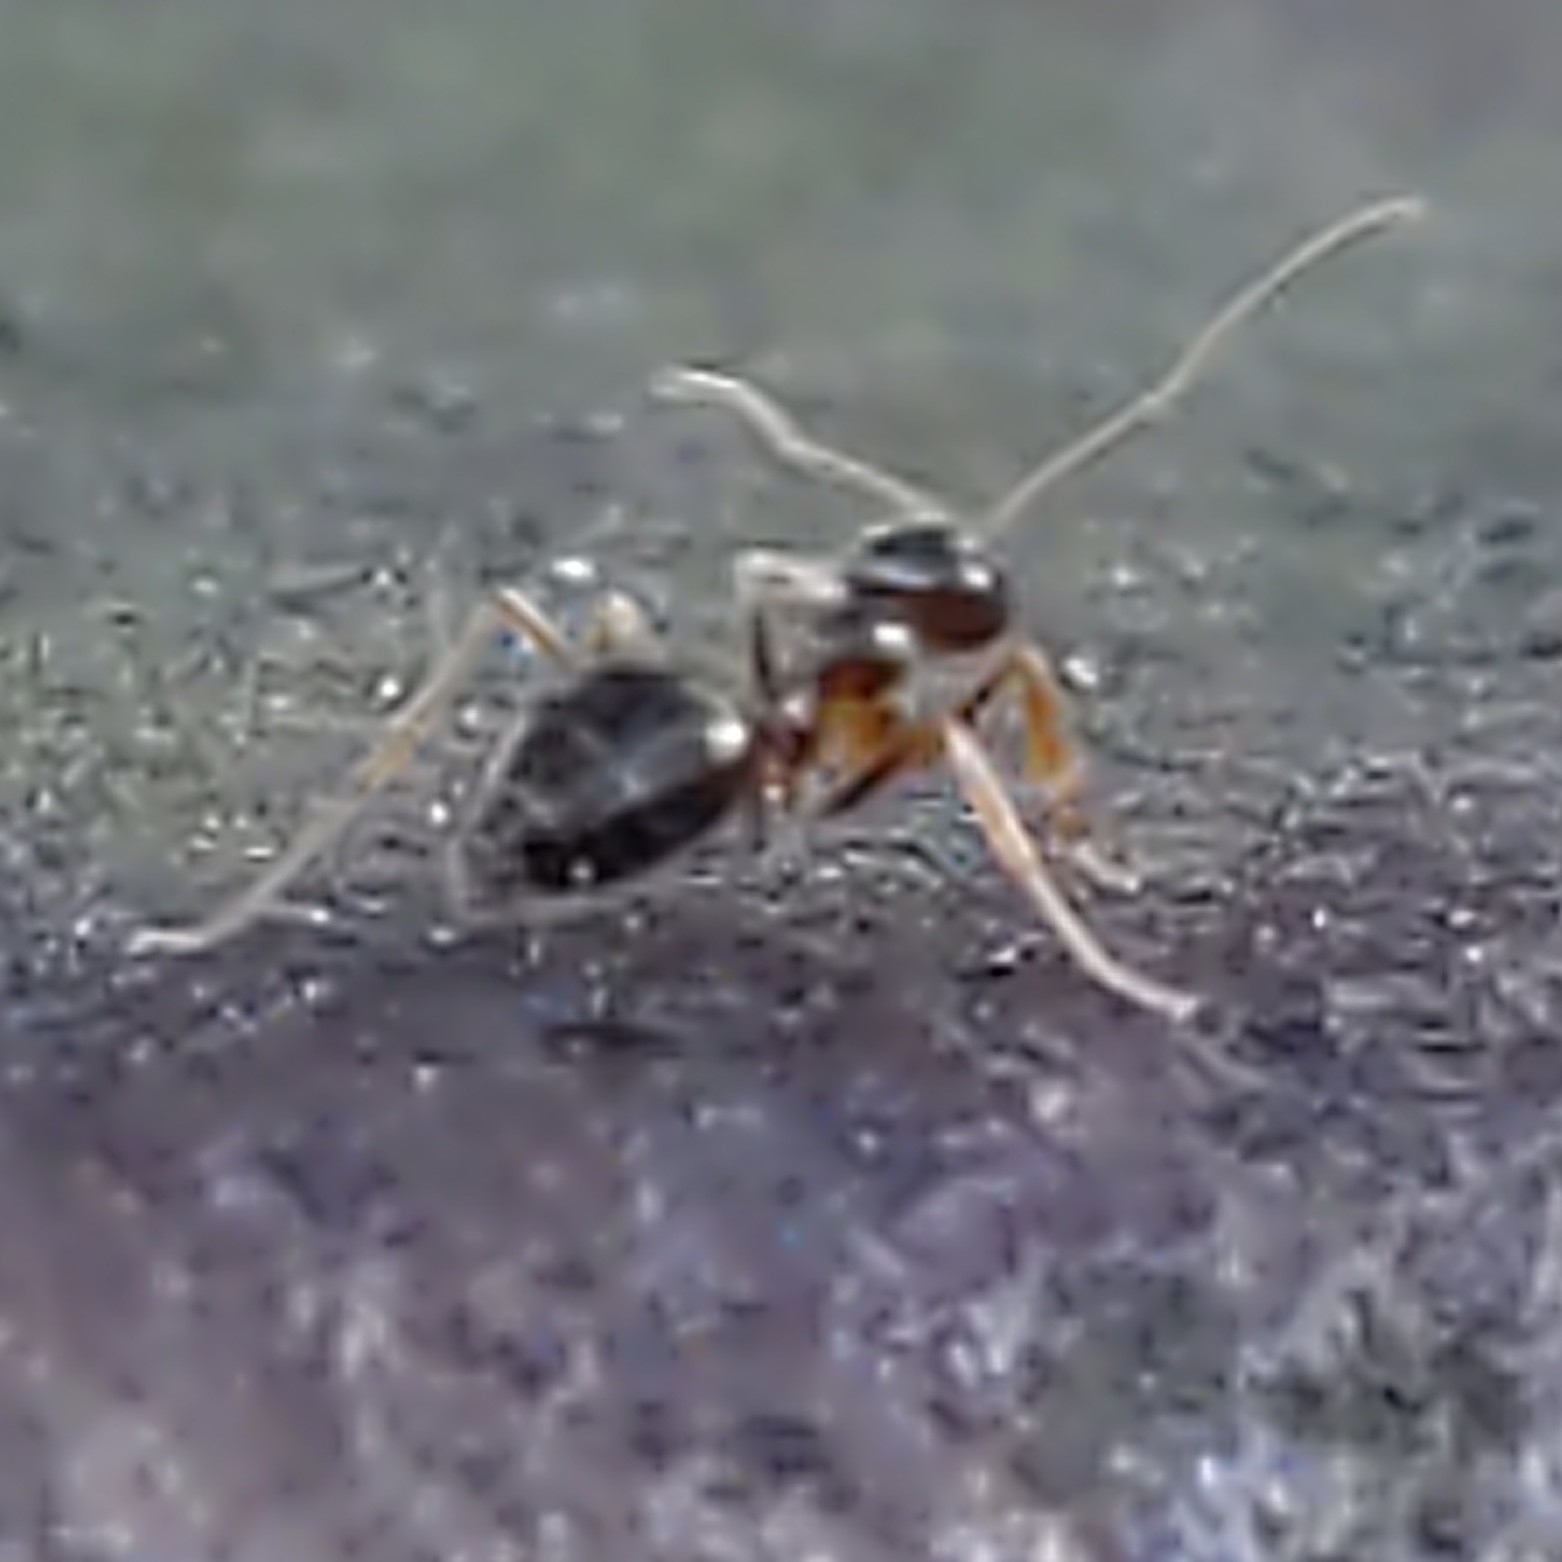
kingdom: Animalia
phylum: Arthropoda
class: Insecta
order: Hymenoptera
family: Formicidae
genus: Prenolepis
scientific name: Prenolepis imparis
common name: Small honey ant
